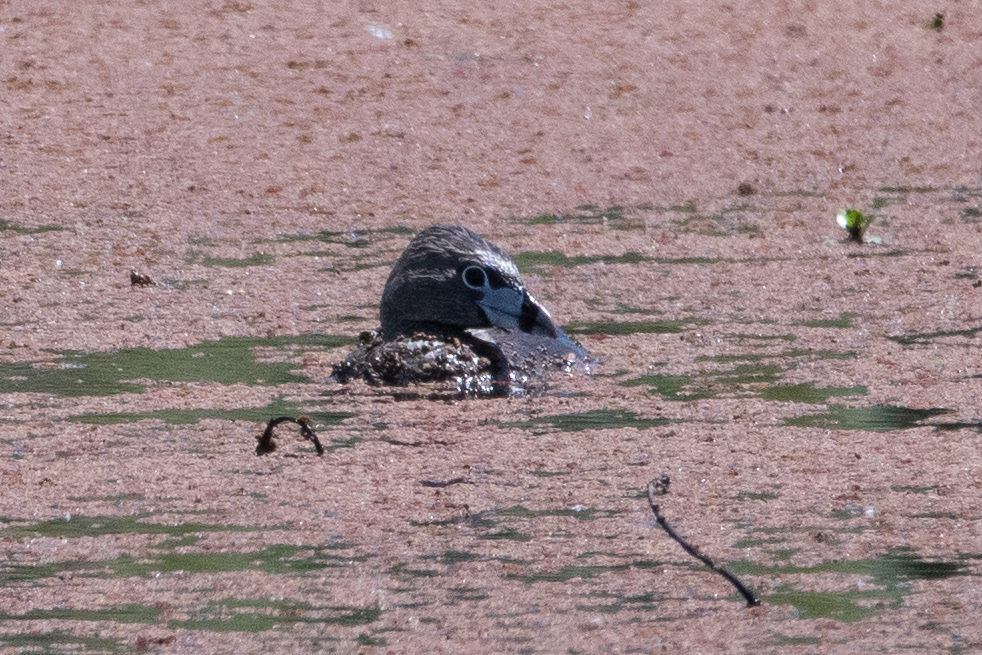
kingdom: Animalia
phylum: Chordata
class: Aves
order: Podicipediformes
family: Podicipedidae
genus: Podilymbus
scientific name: Podilymbus podiceps
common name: Pied-billed grebe
